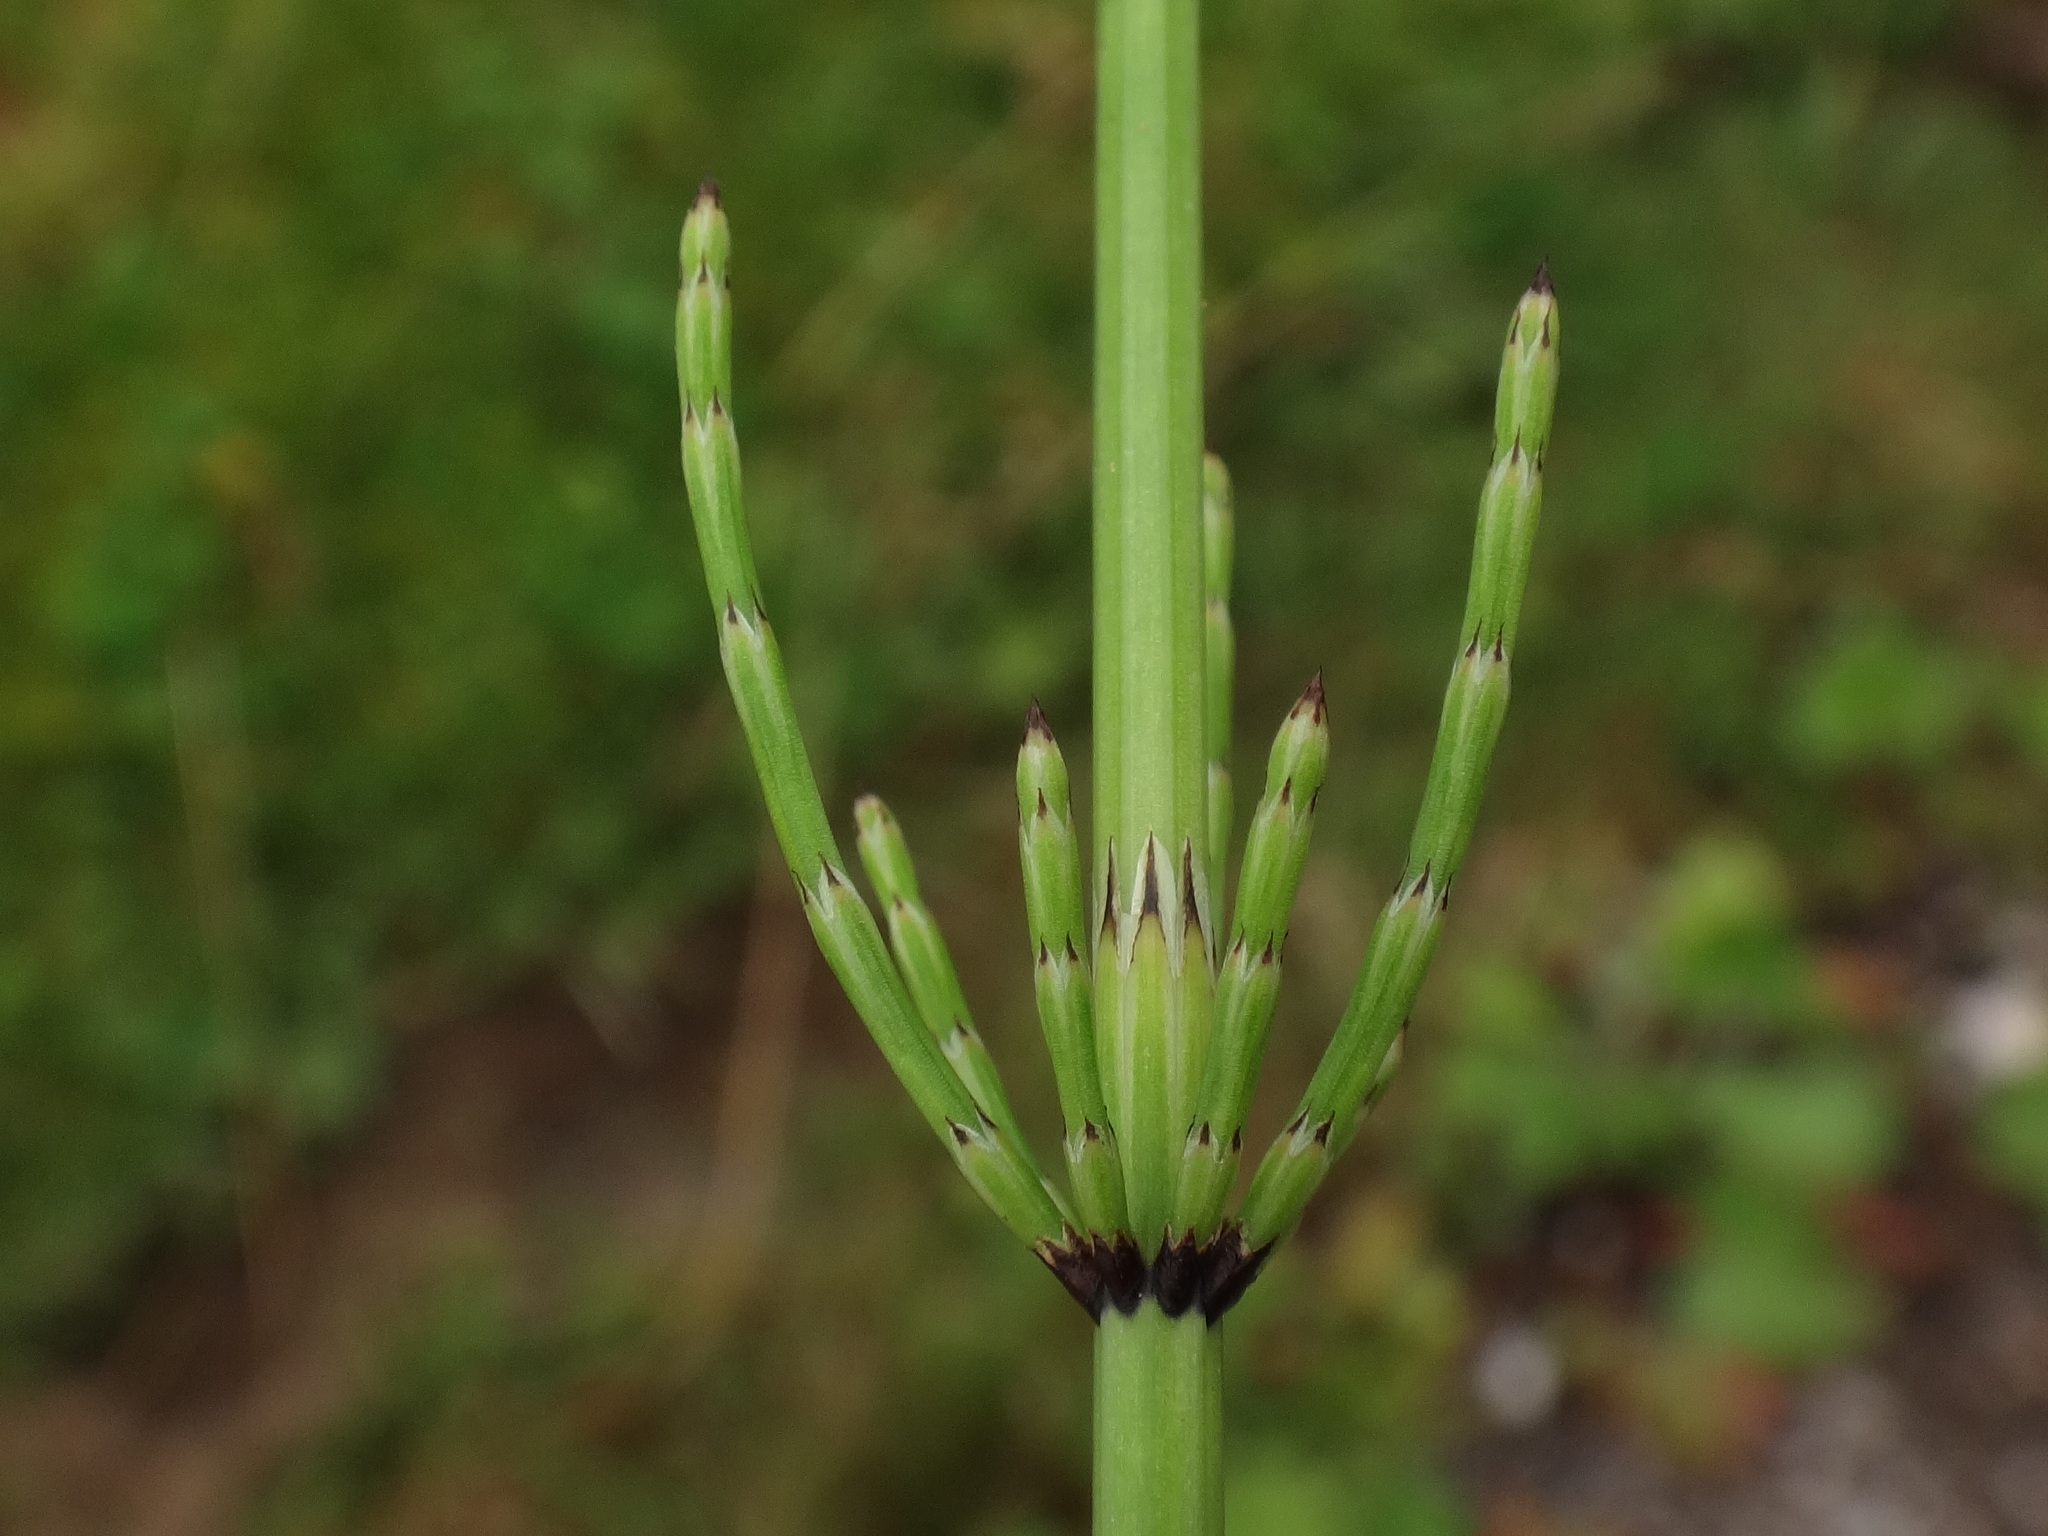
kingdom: Plantae
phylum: Tracheophyta
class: Polypodiopsida
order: Equisetales
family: Equisetaceae
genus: Equisetum
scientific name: Equisetum palustre
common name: Marsh horsetail
